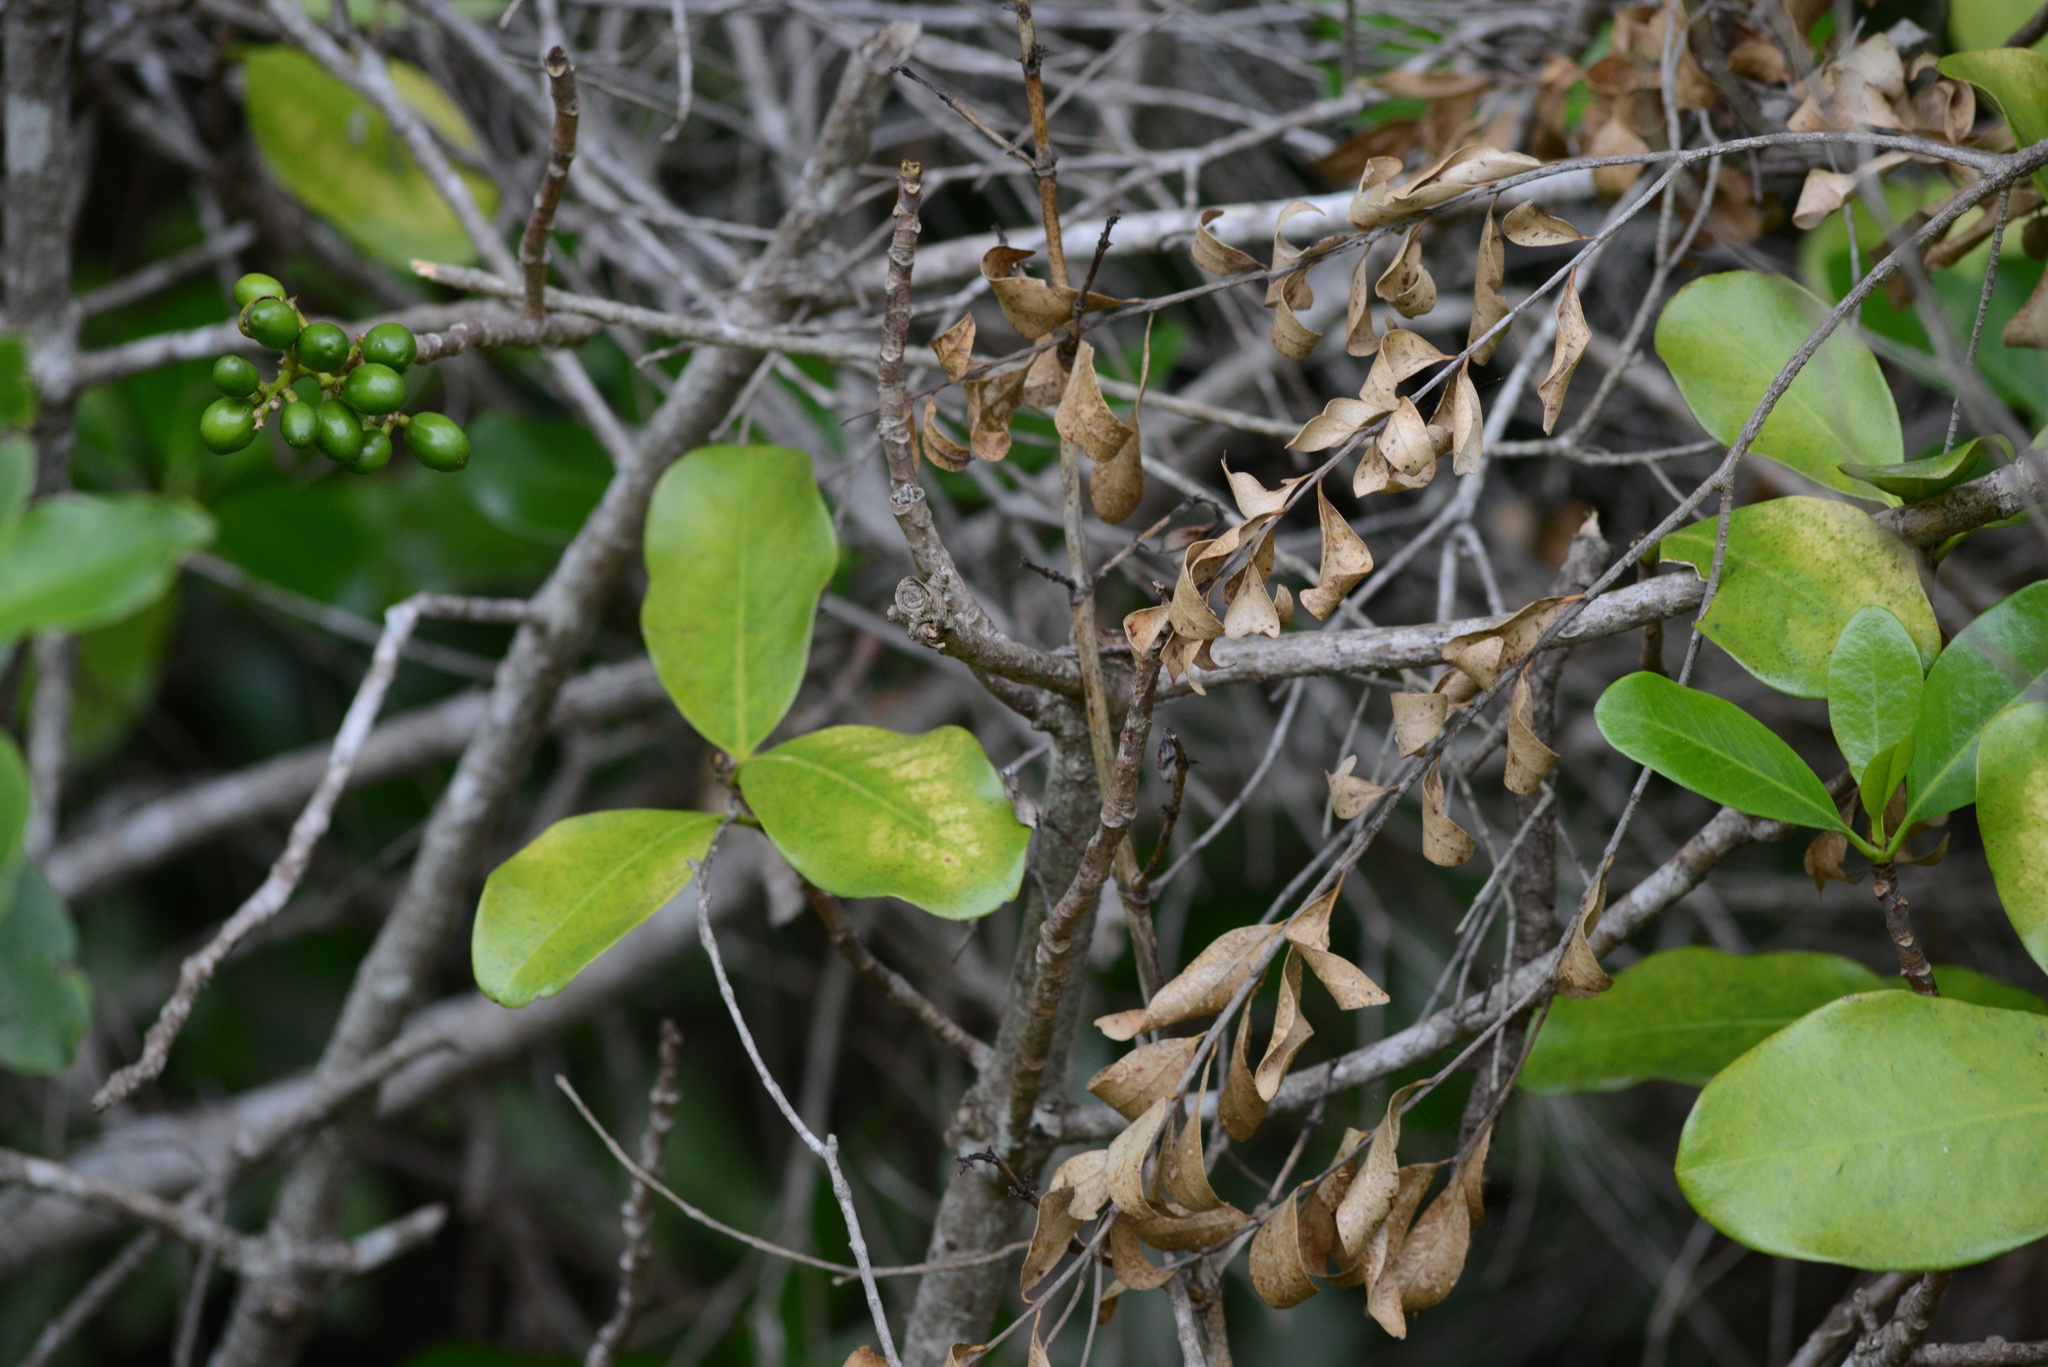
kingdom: Plantae
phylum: Tracheophyta
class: Magnoliopsida
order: Cucurbitales
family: Corynocarpaceae
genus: Corynocarpus
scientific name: Corynocarpus laevigatus
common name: New zealand laurel
